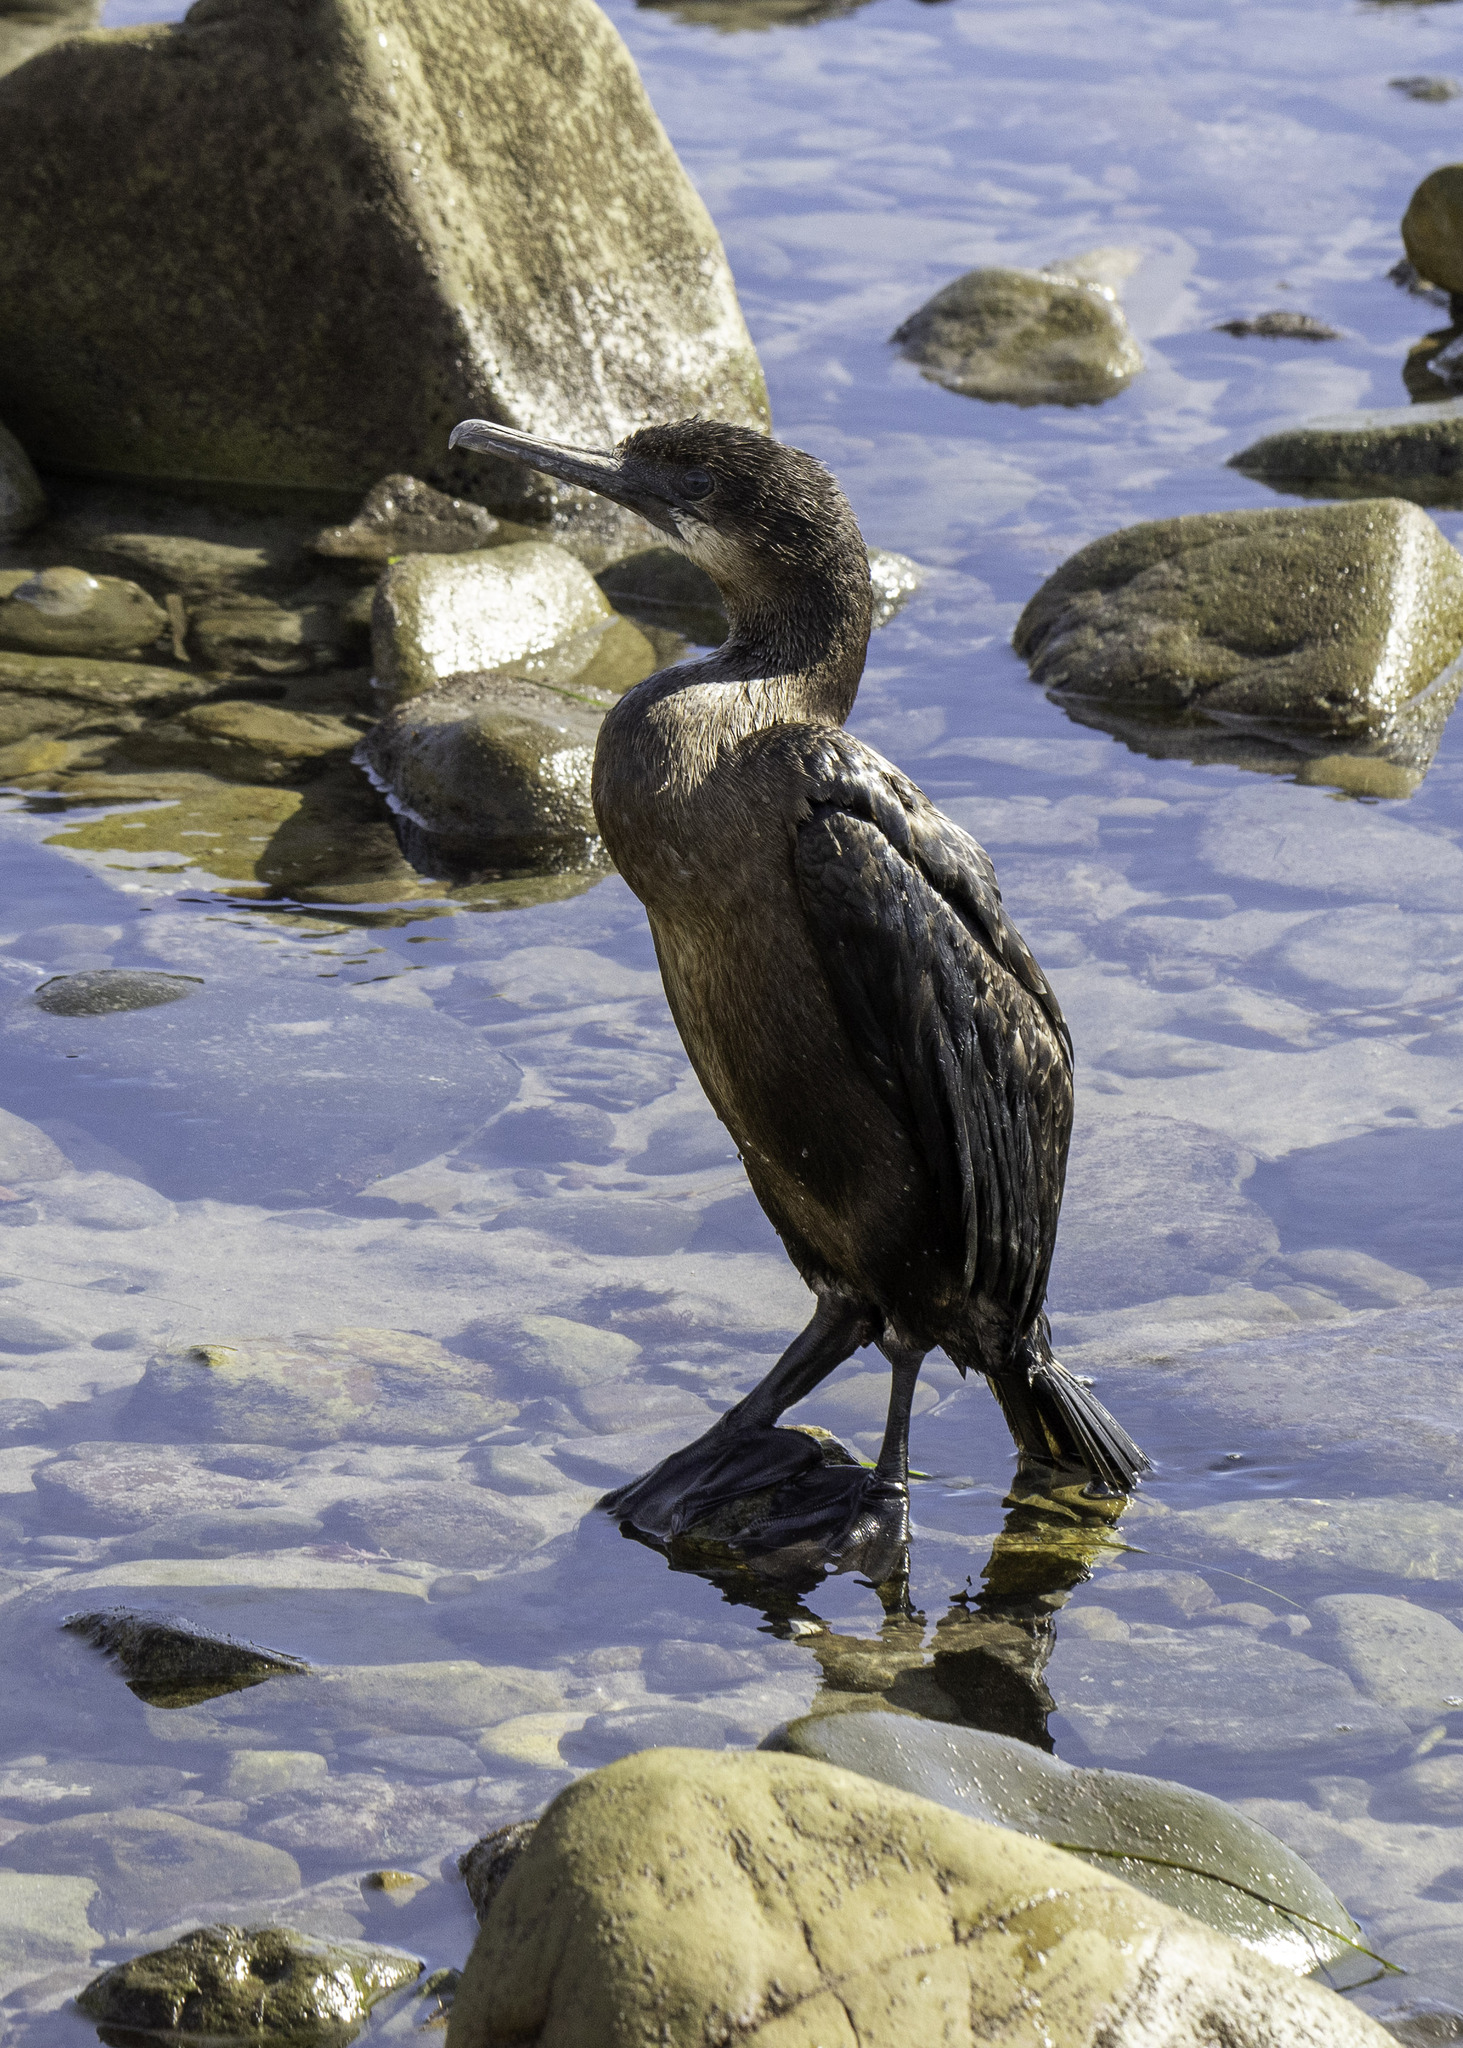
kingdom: Animalia
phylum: Chordata
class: Aves
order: Suliformes
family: Phalacrocoracidae
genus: Urile
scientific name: Urile penicillatus
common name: Brandt's cormorant
